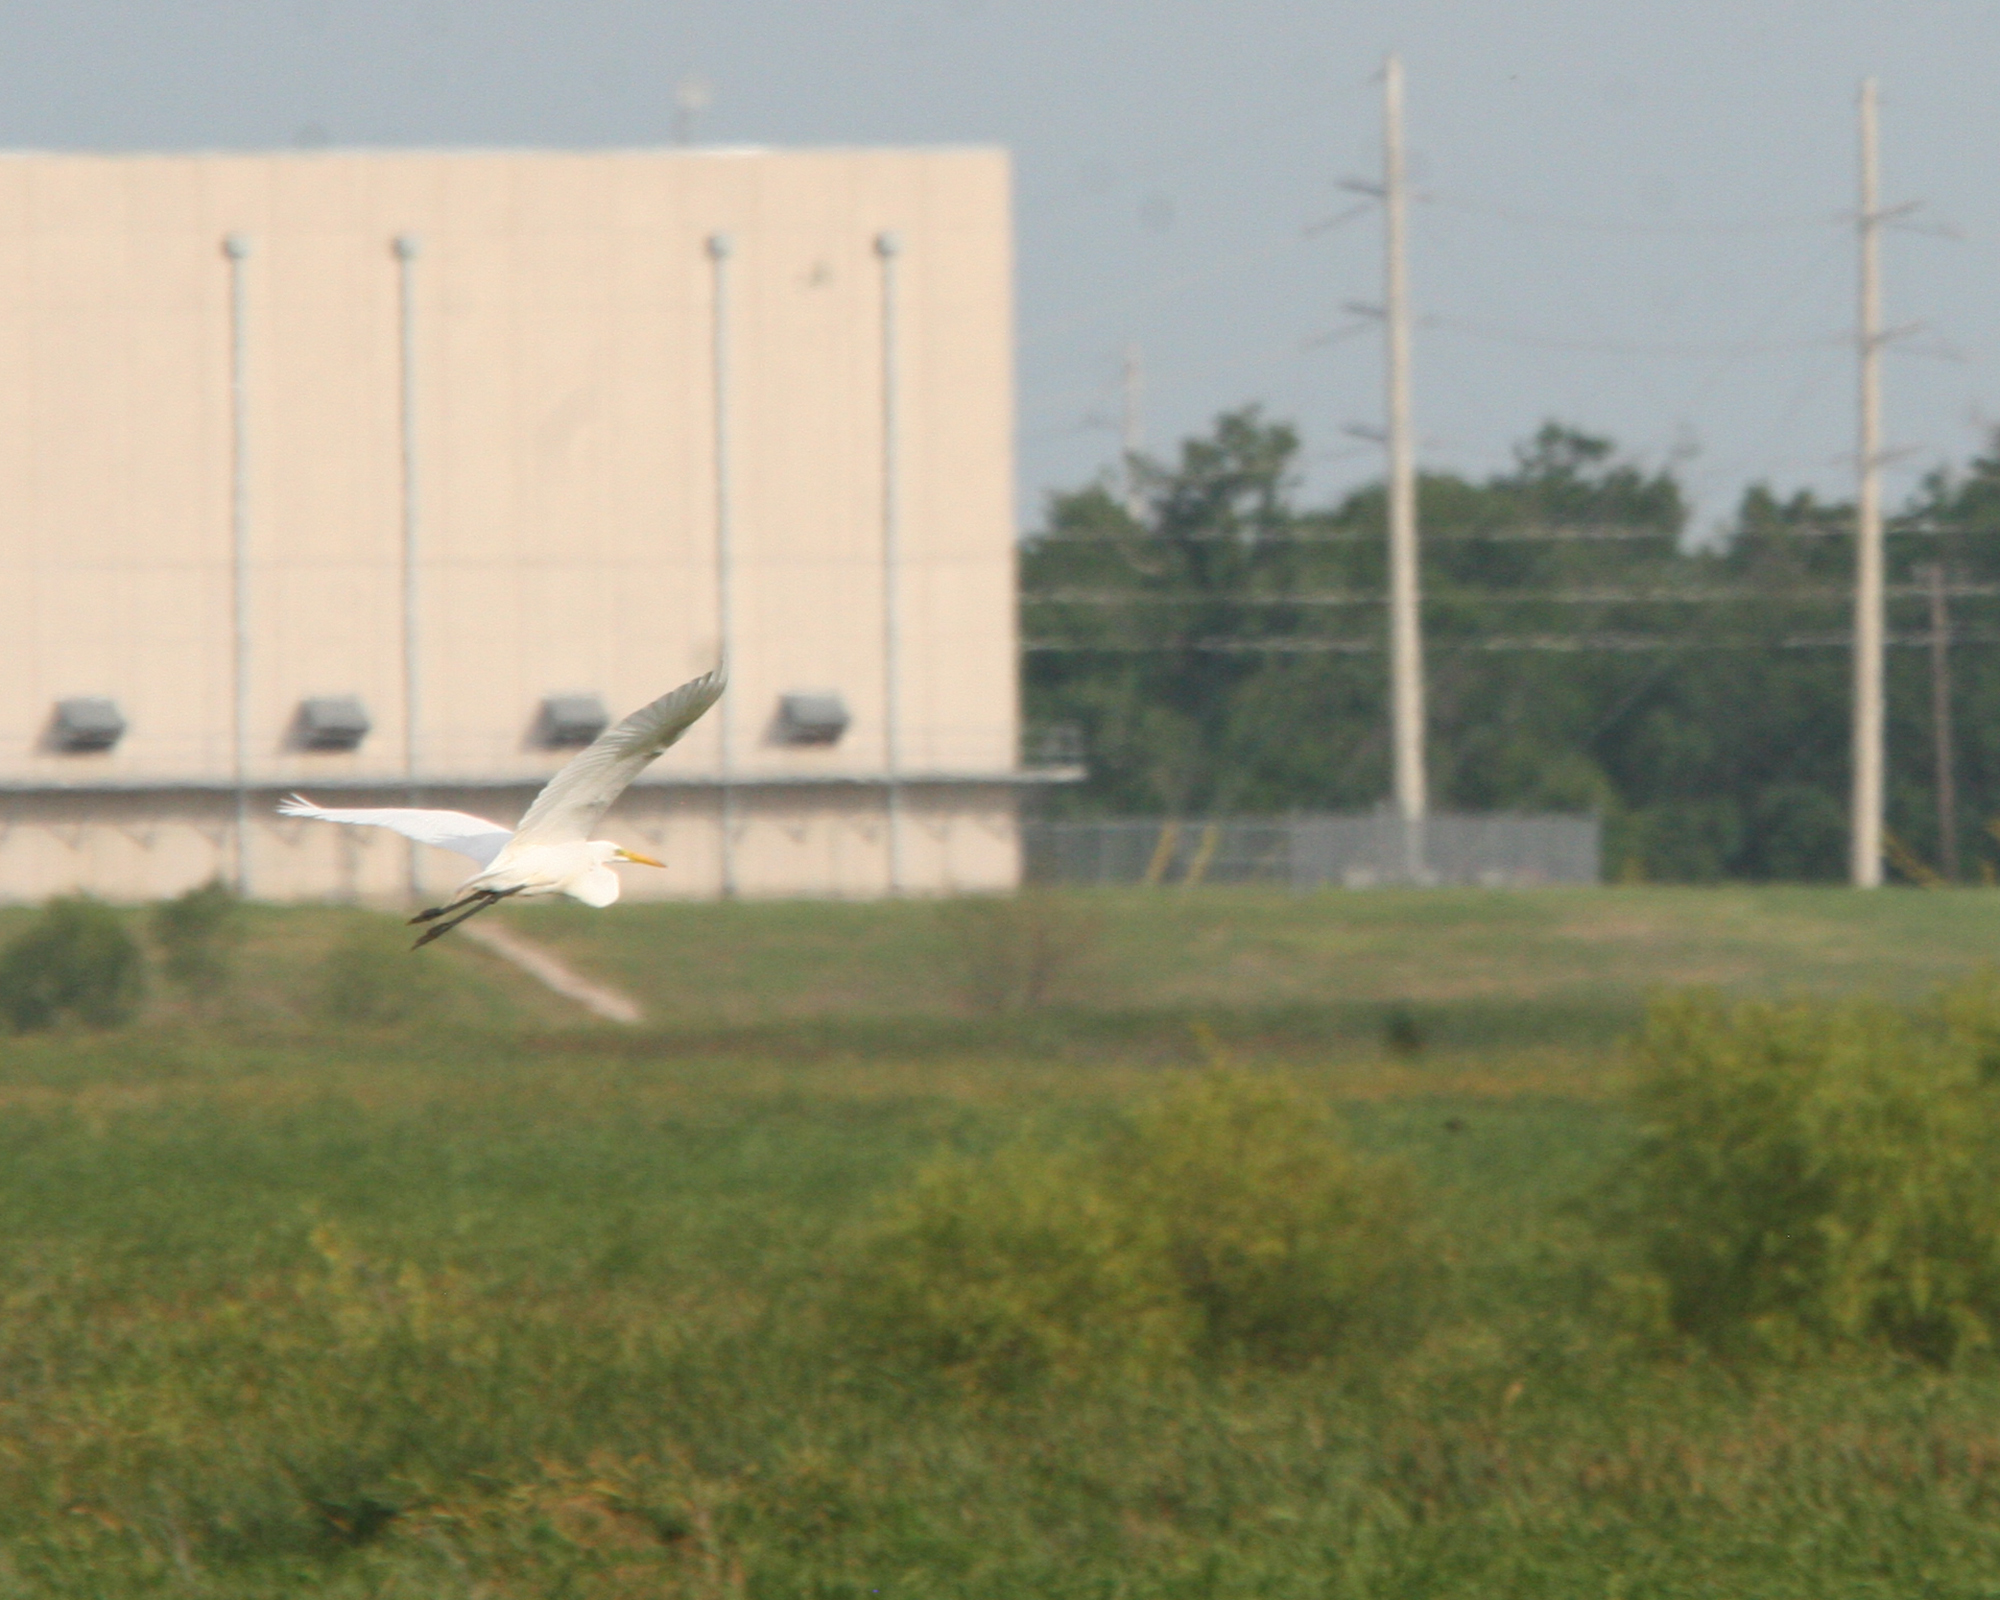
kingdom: Animalia
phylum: Chordata
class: Aves
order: Pelecaniformes
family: Ardeidae
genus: Ardea
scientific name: Ardea alba
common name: Great egret
